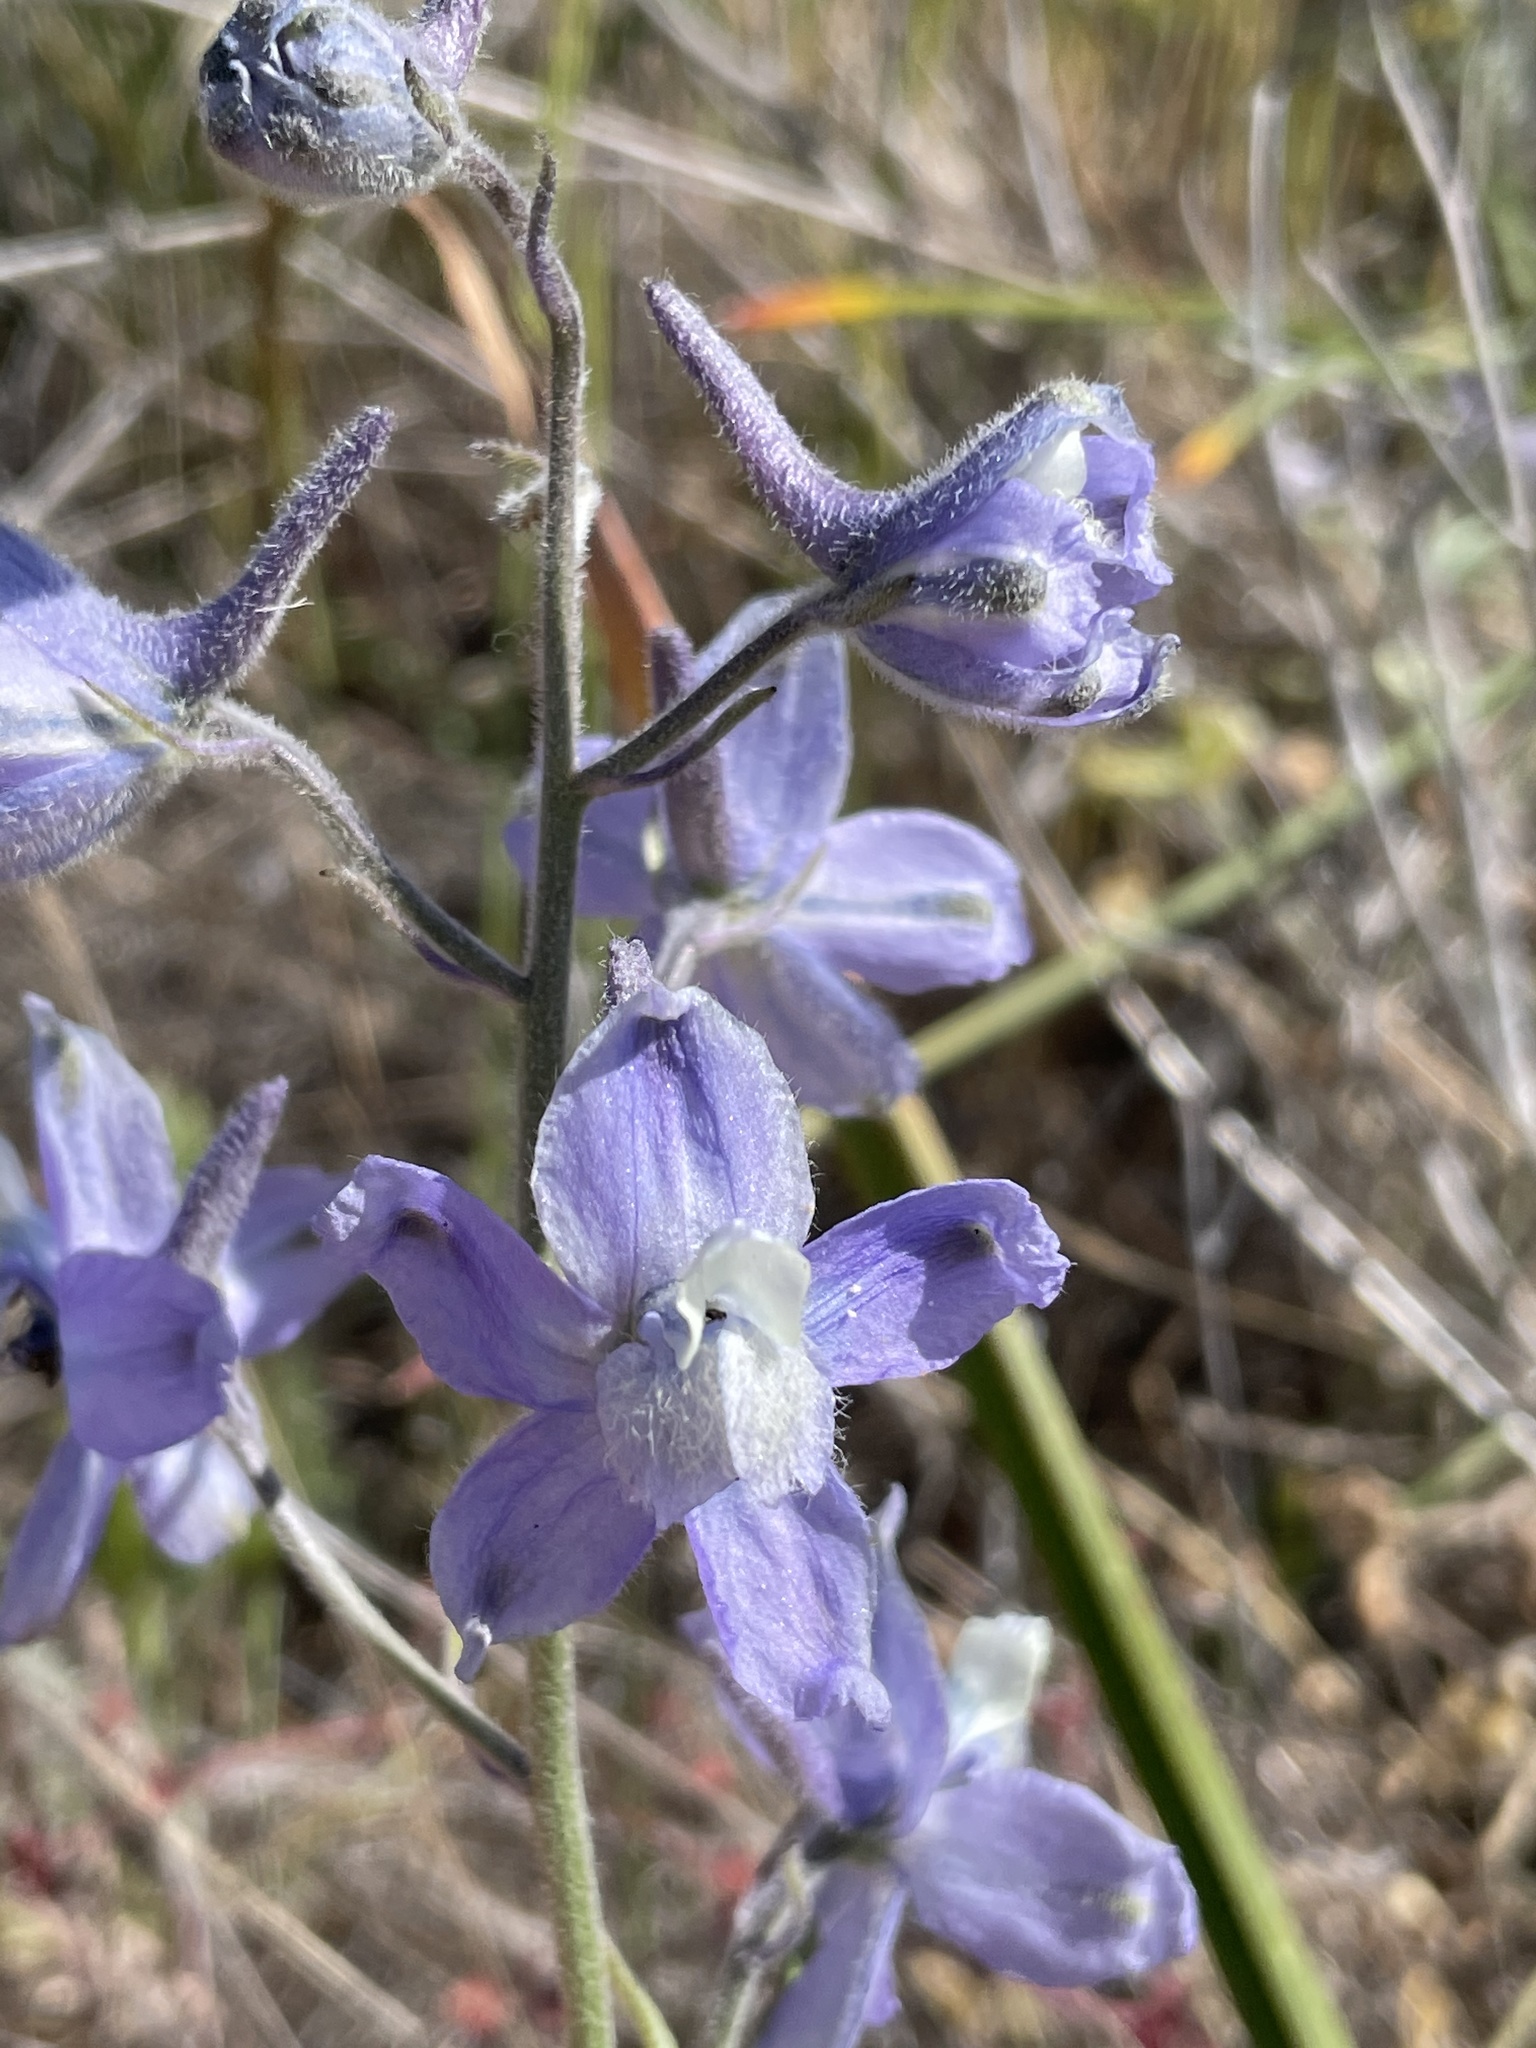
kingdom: Plantae
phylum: Tracheophyta
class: Magnoliopsida
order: Ranunculales
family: Ranunculaceae
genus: Delphinium
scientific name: Delphinium variegatum
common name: Royal larkspur
